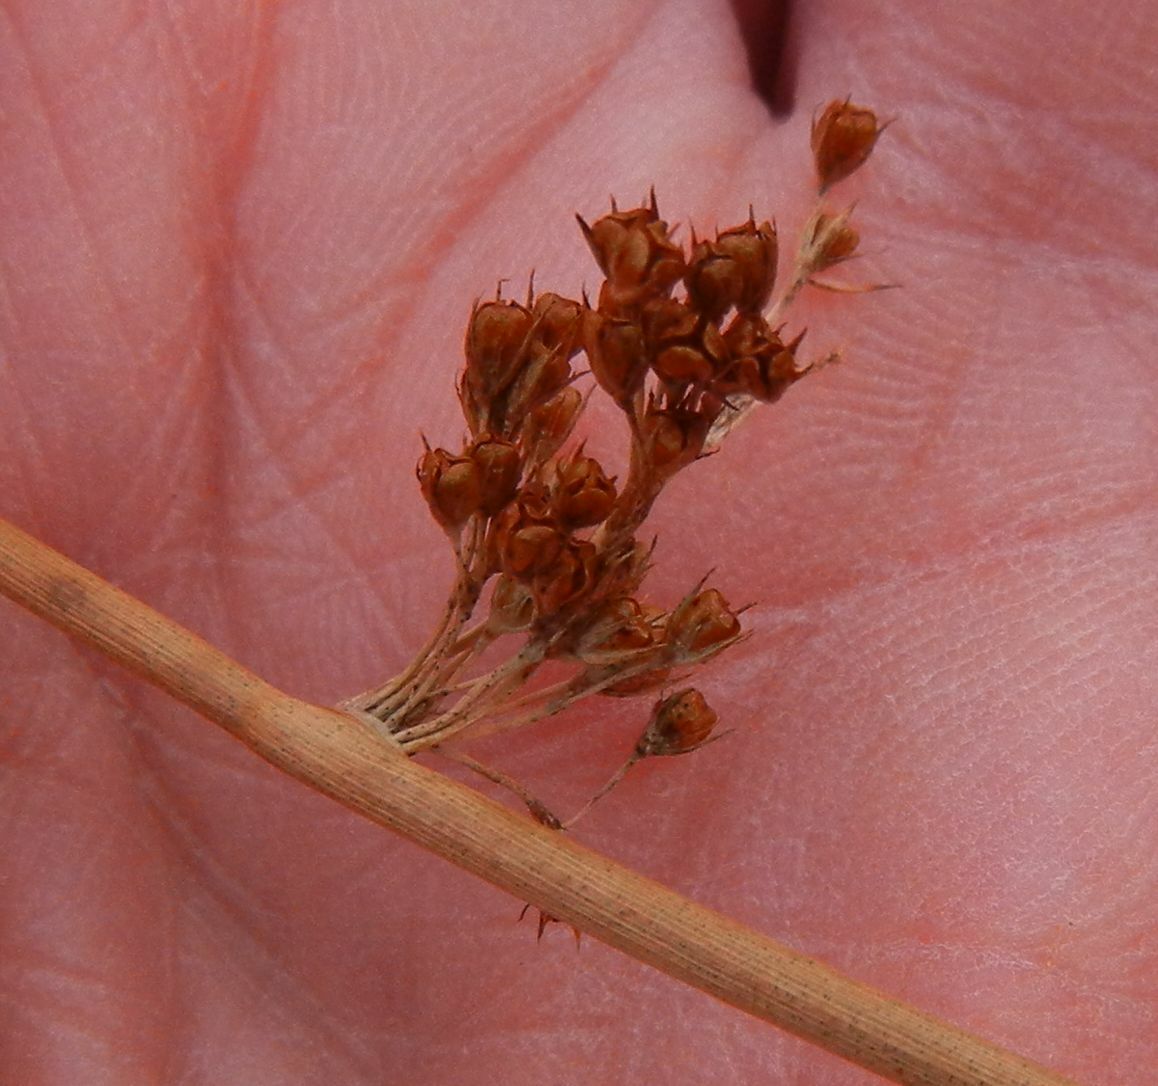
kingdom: Plantae
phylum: Tracheophyta
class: Liliopsida
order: Poales
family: Juncaceae
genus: Juncus
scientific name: Juncus effusus
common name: Soft rush
